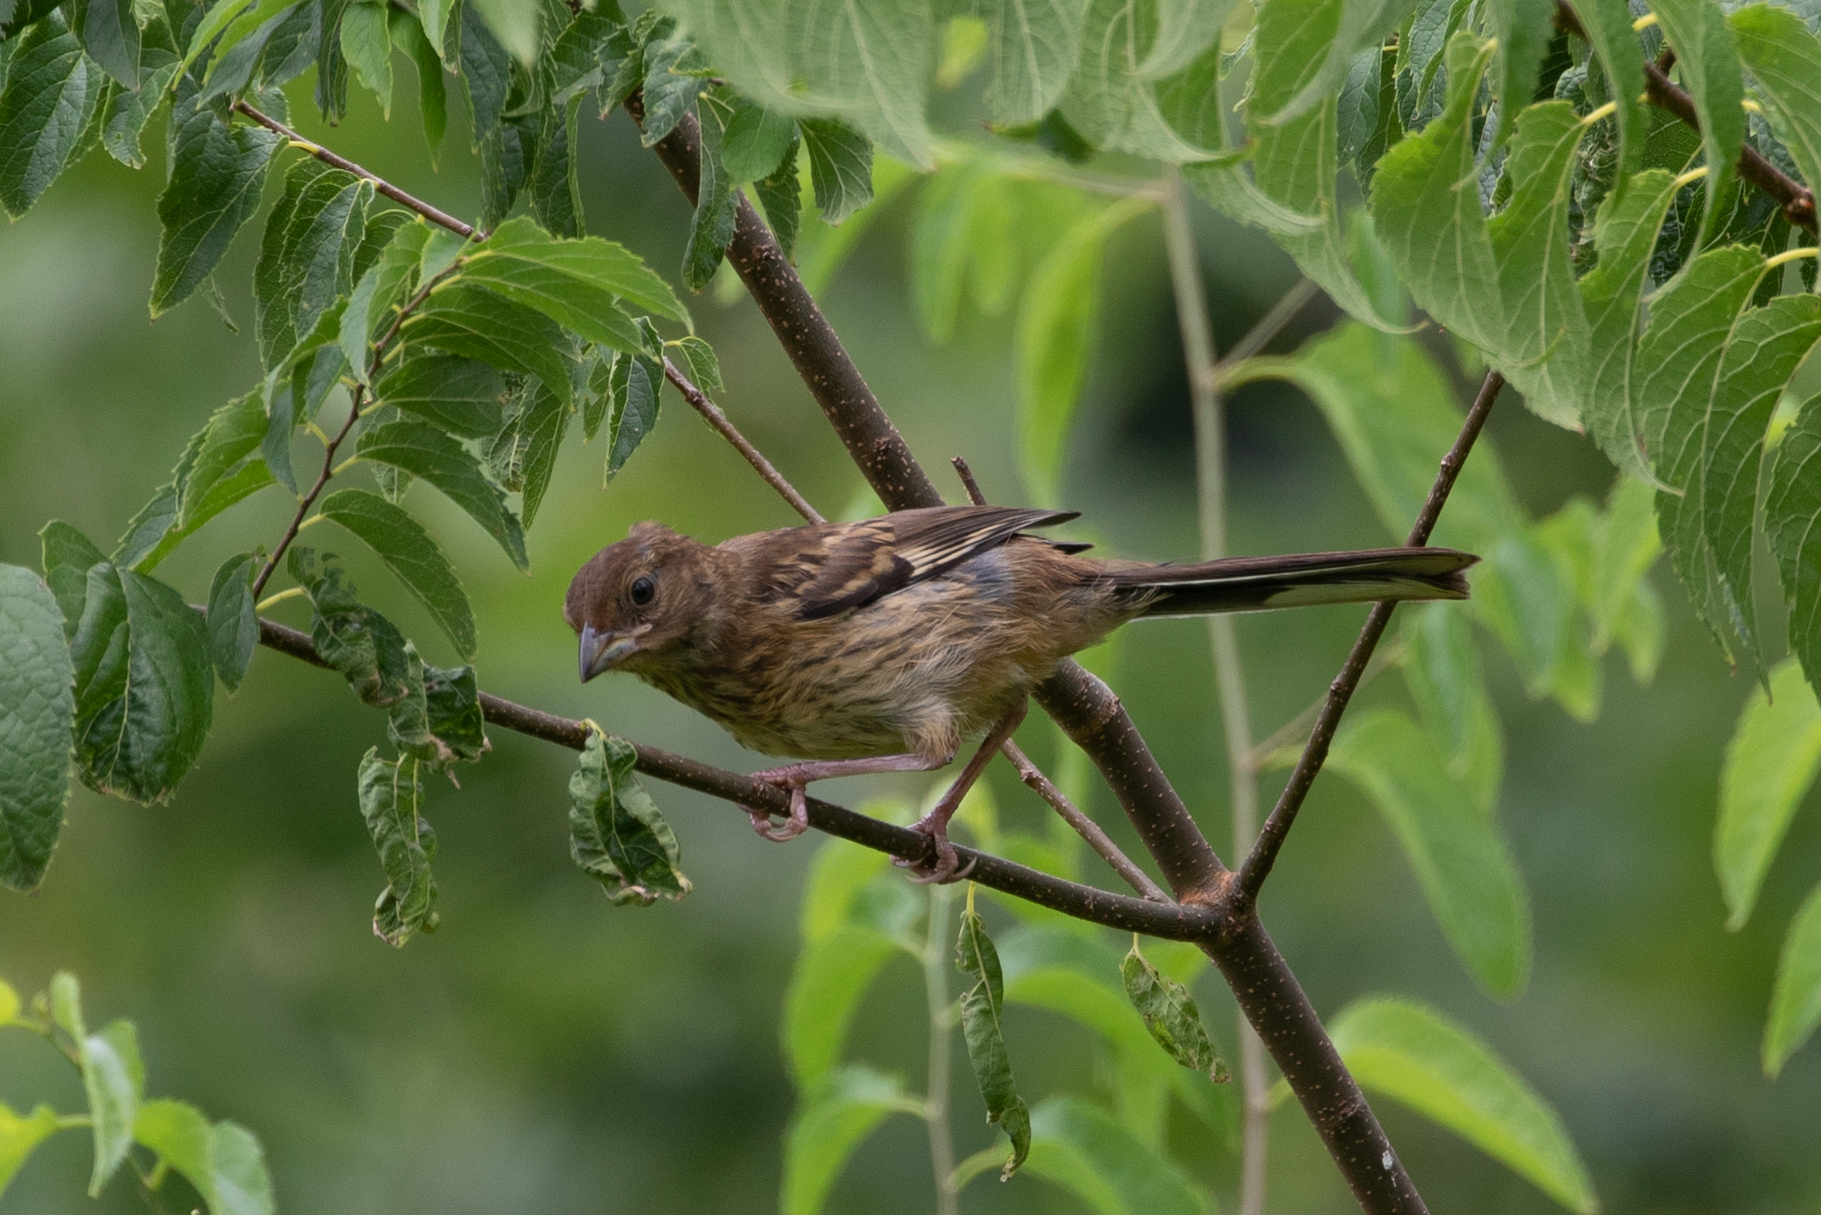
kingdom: Animalia
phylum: Chordata
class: Aves
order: Passeriformes
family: Passerellidae
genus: Pipilo
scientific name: Pipilo erythrophthalmus
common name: Eastern towhee
